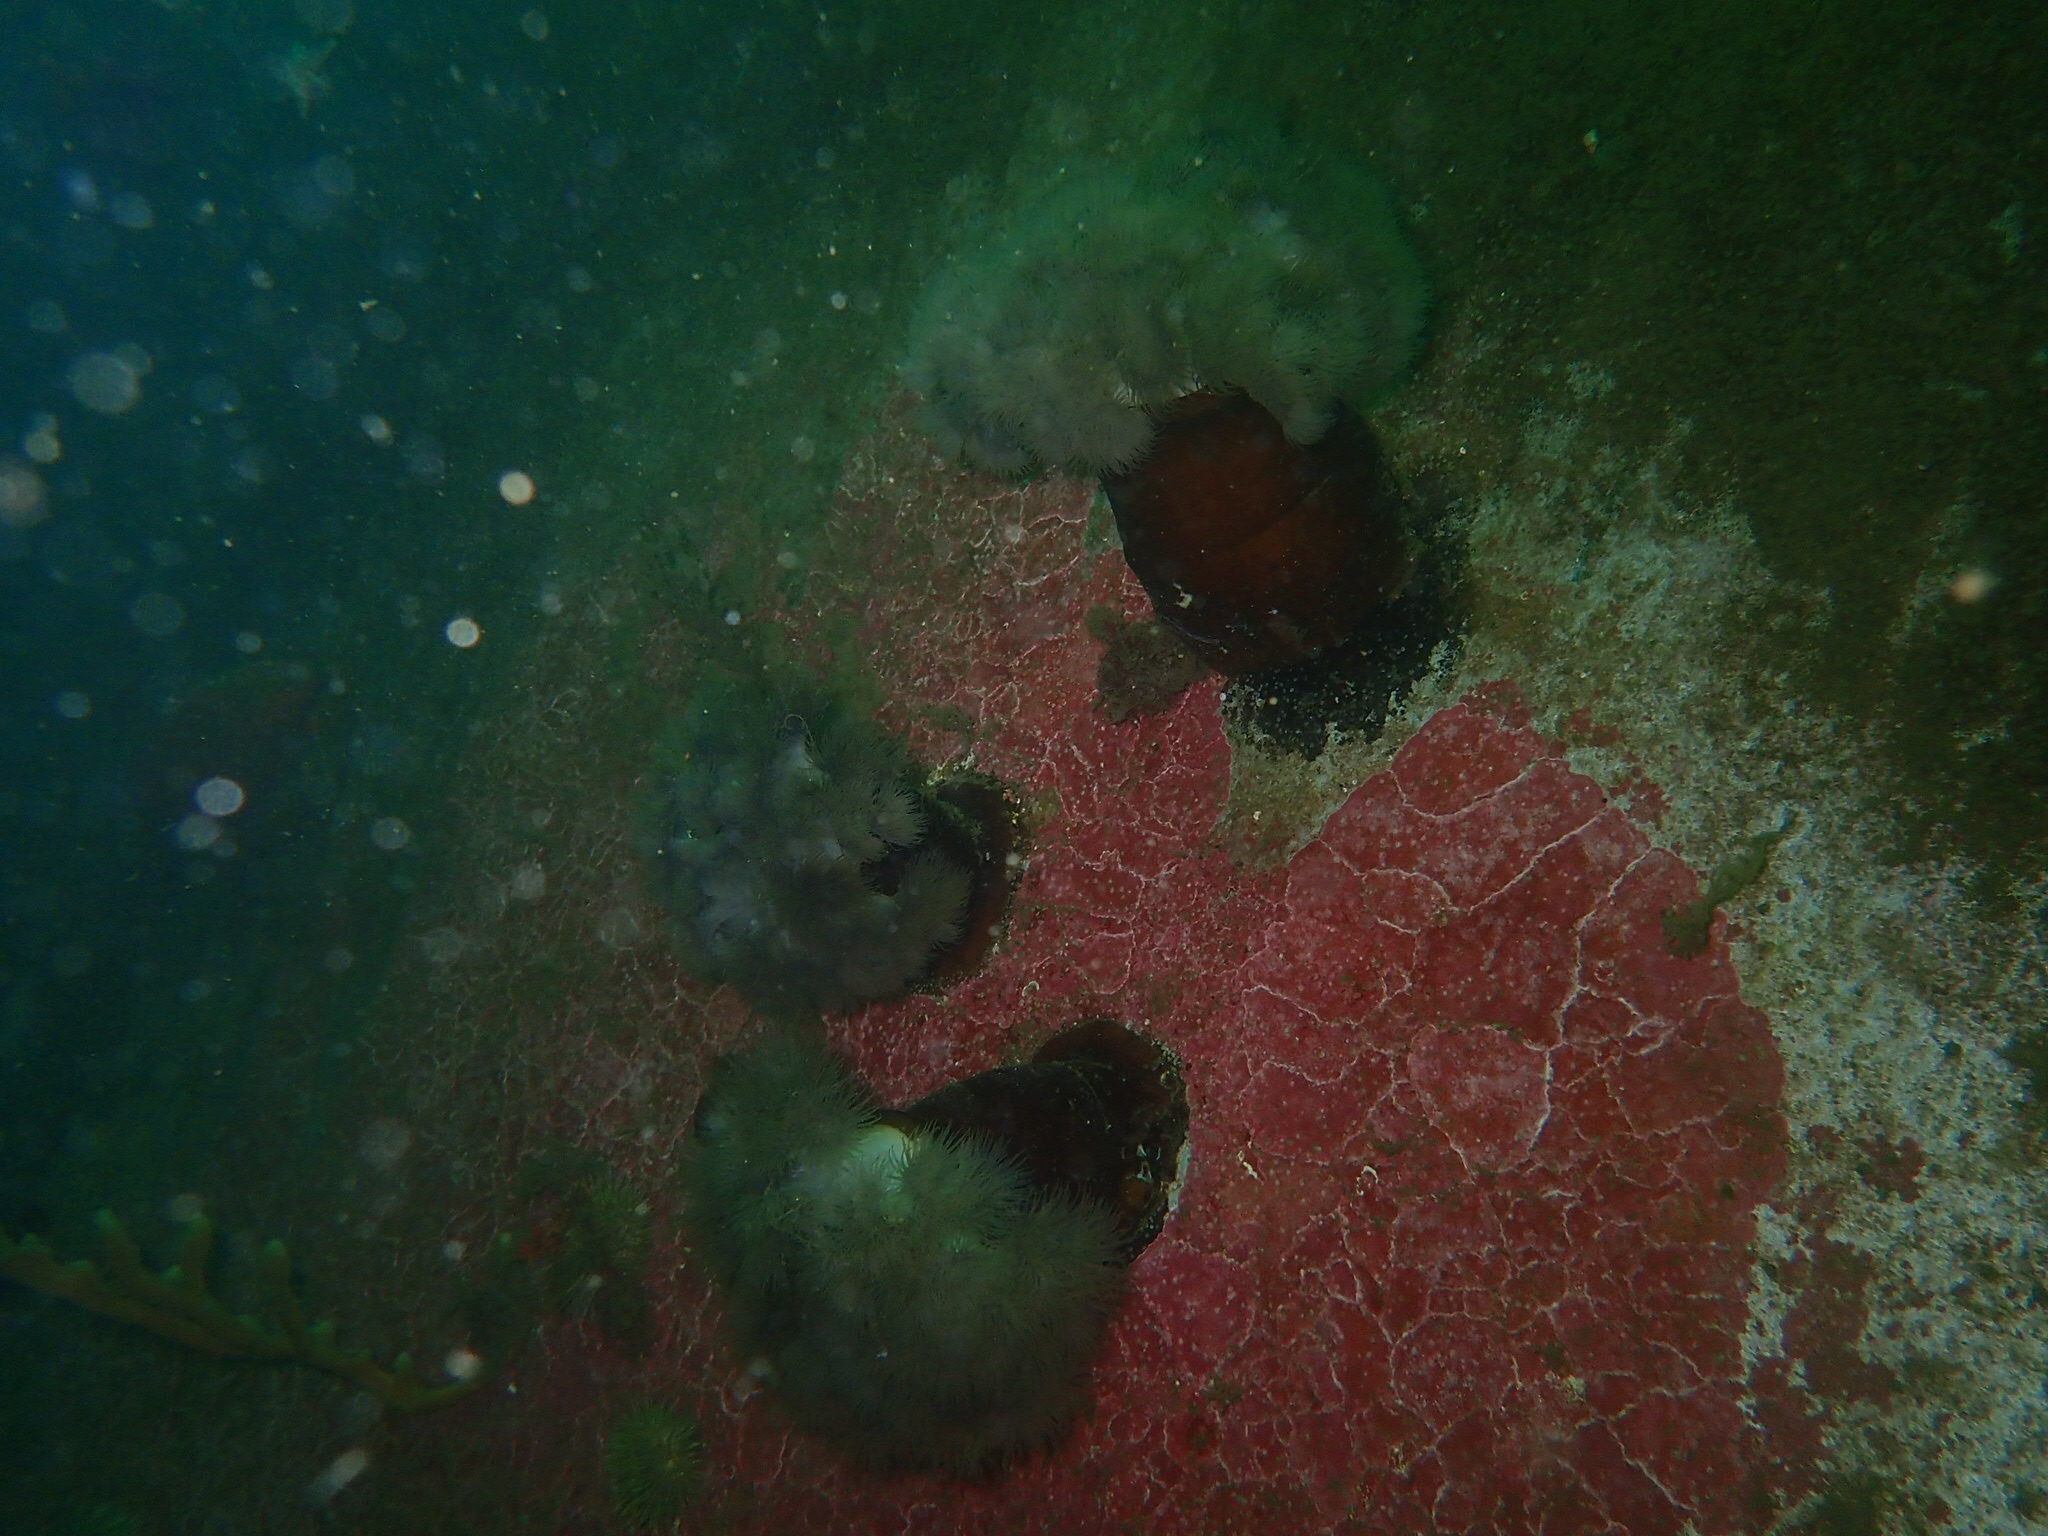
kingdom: Animalia
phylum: Cnidaria
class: Anthozoa
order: Actiniaria
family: Metridiidae
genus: Metridium
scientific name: Metridium senile
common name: Clonal plumose anemone
